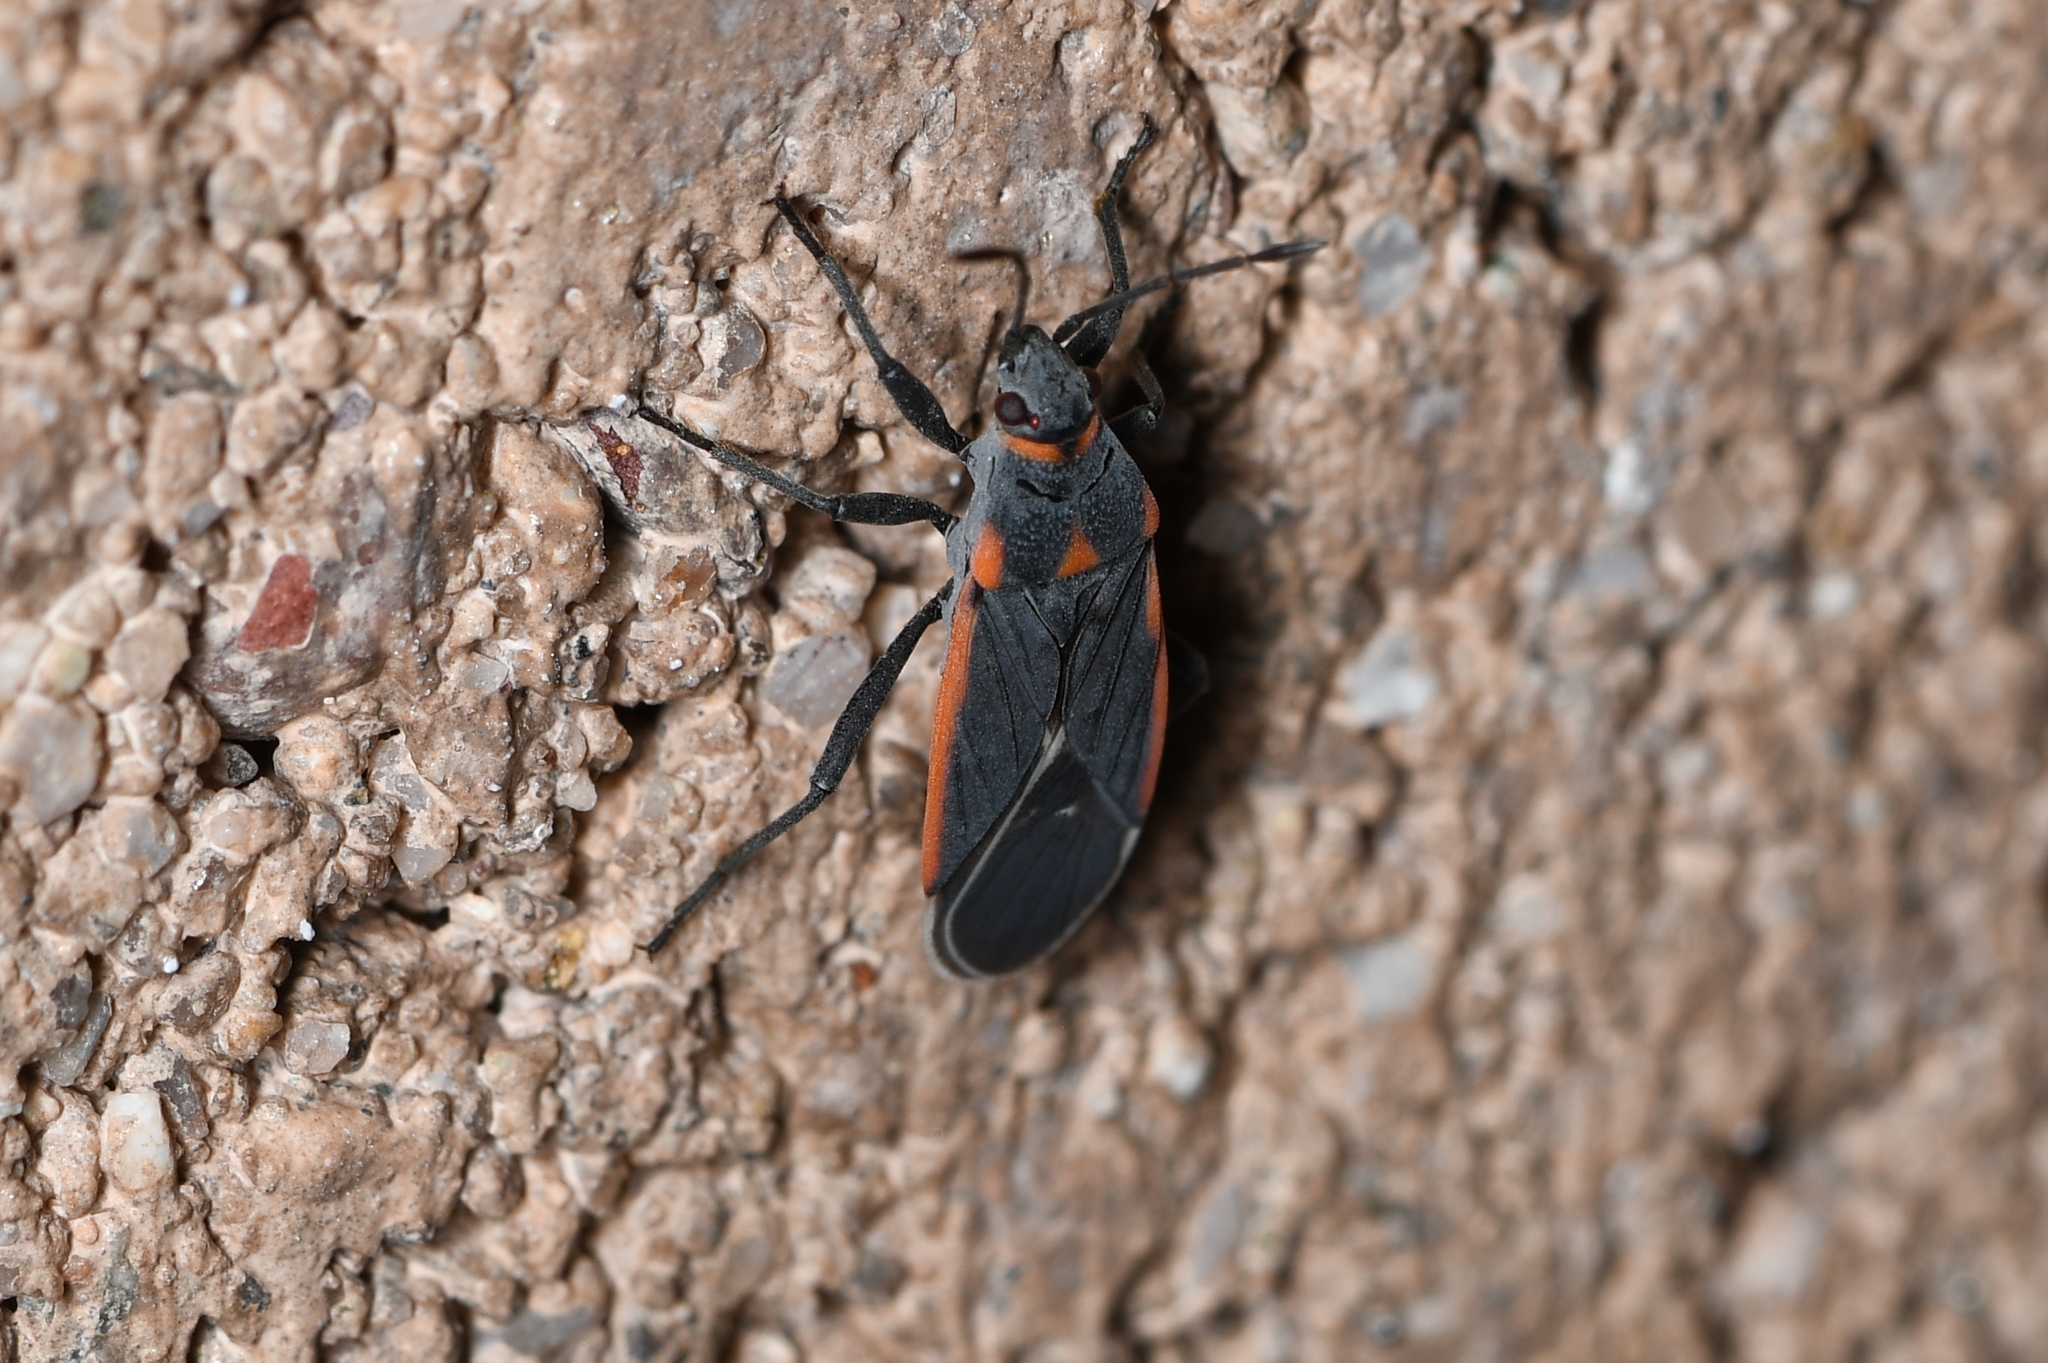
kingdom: Animalia
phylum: Arthropoda
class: Insecta
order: Hemiptera
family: Lygaeidae
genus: Melacoryphus
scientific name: Melacoryphus lateralis
